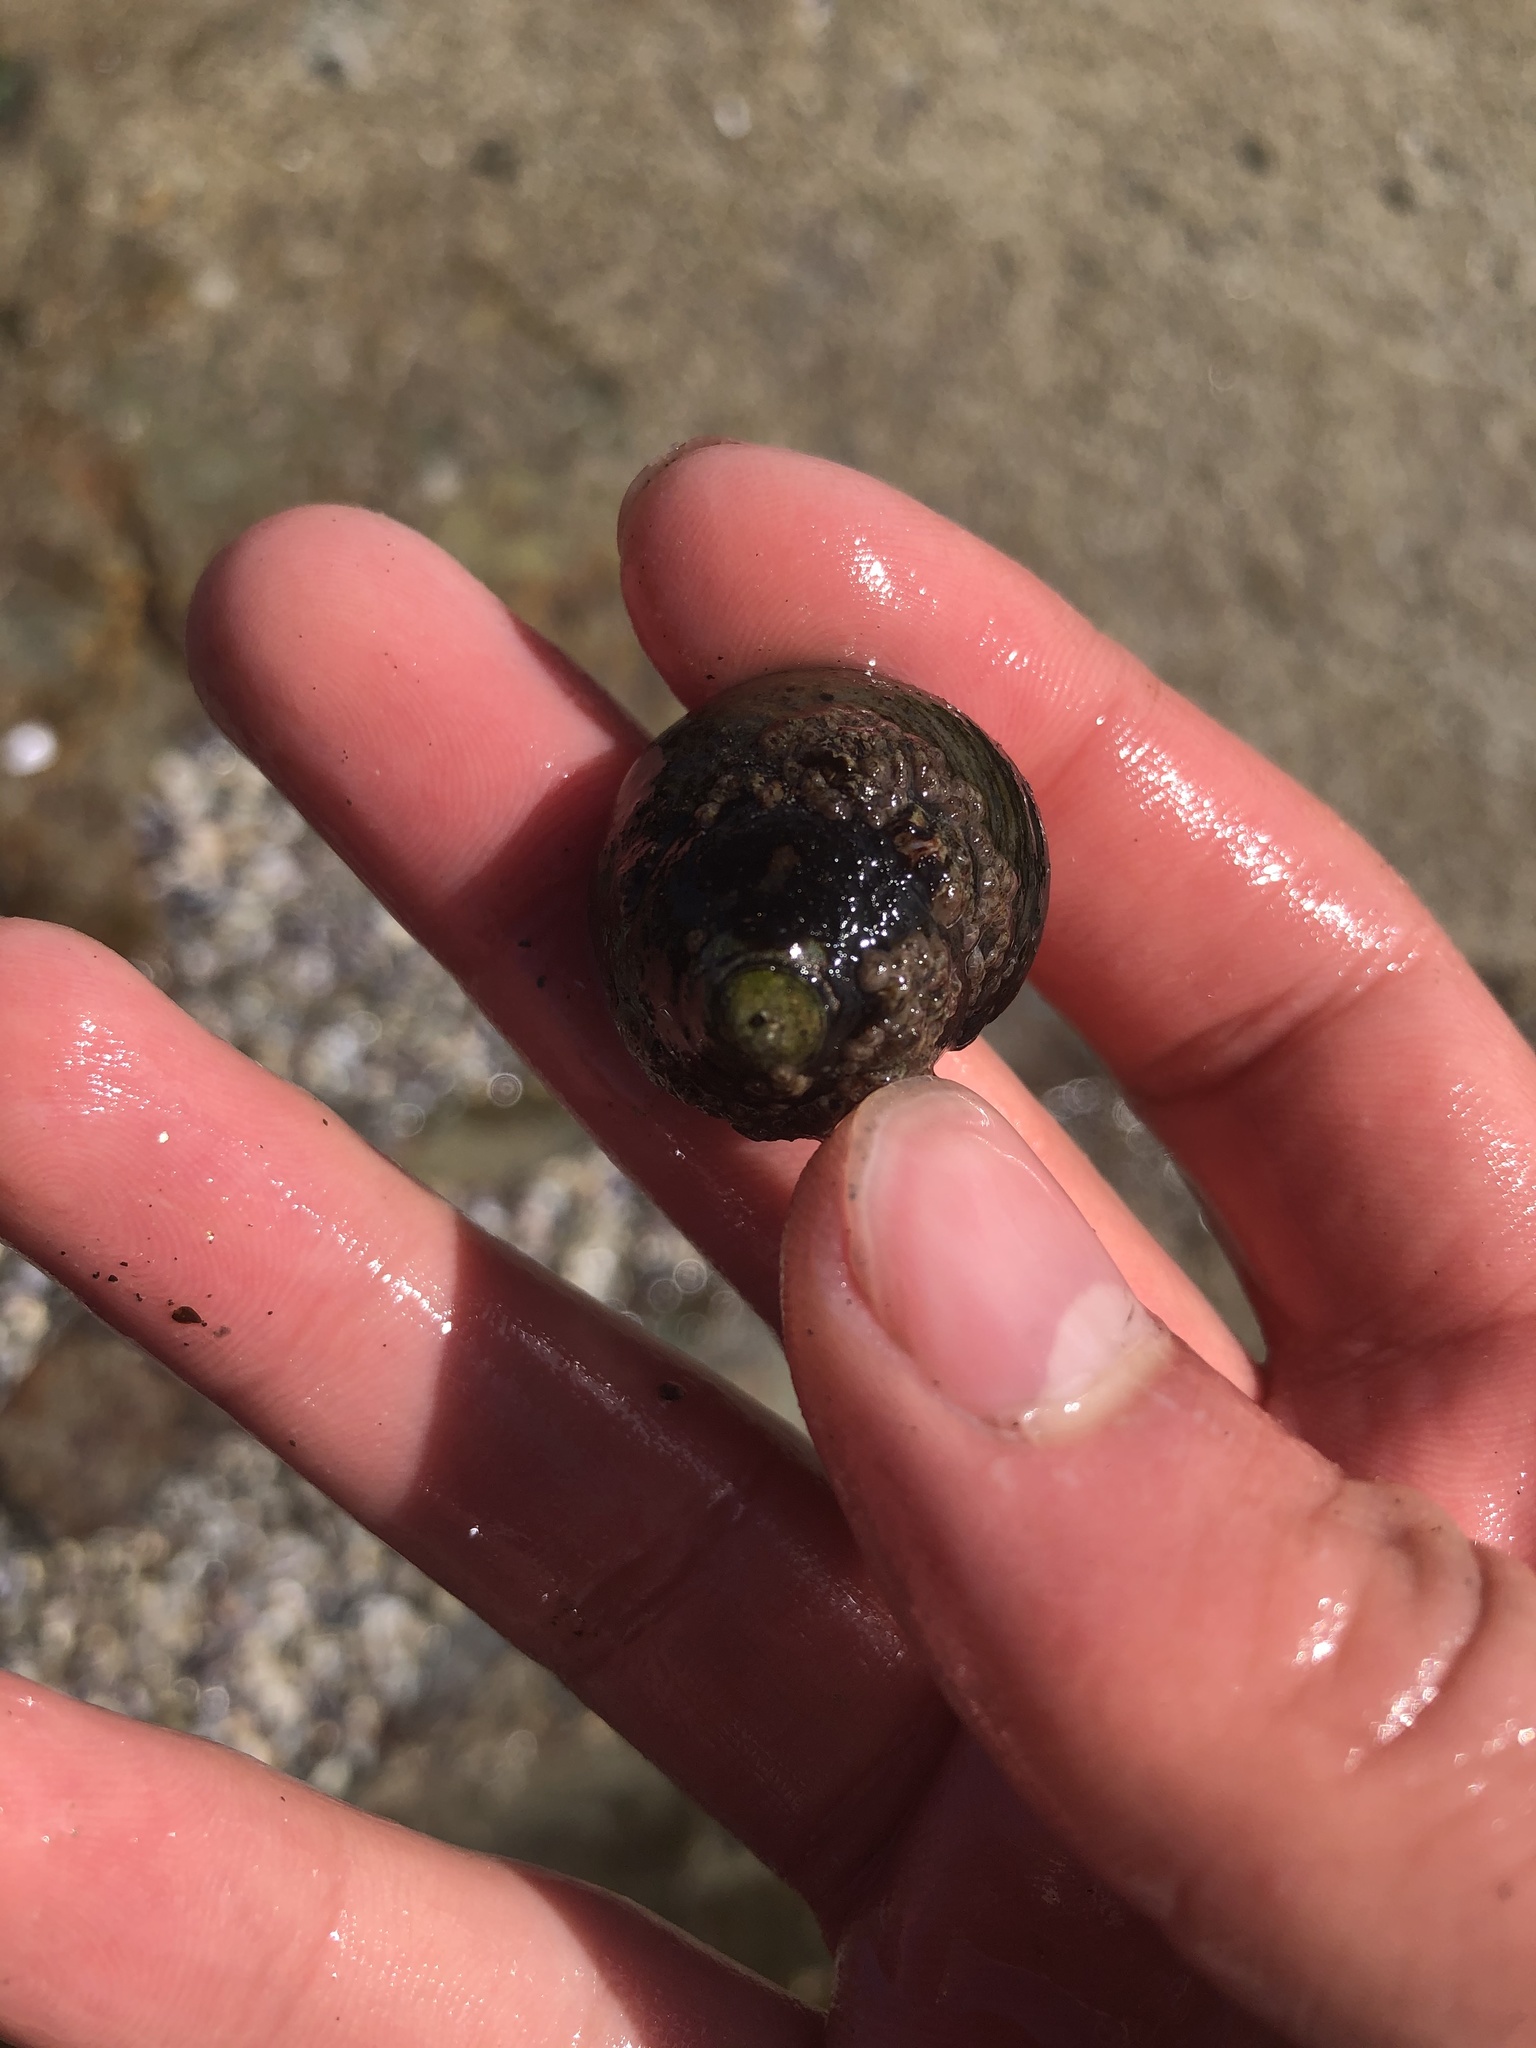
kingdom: Animalia
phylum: Mollusca
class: Gastropoda
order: Trochida
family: Tegulidae
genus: Tegula
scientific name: Tegula funebralis
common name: Black tegula
